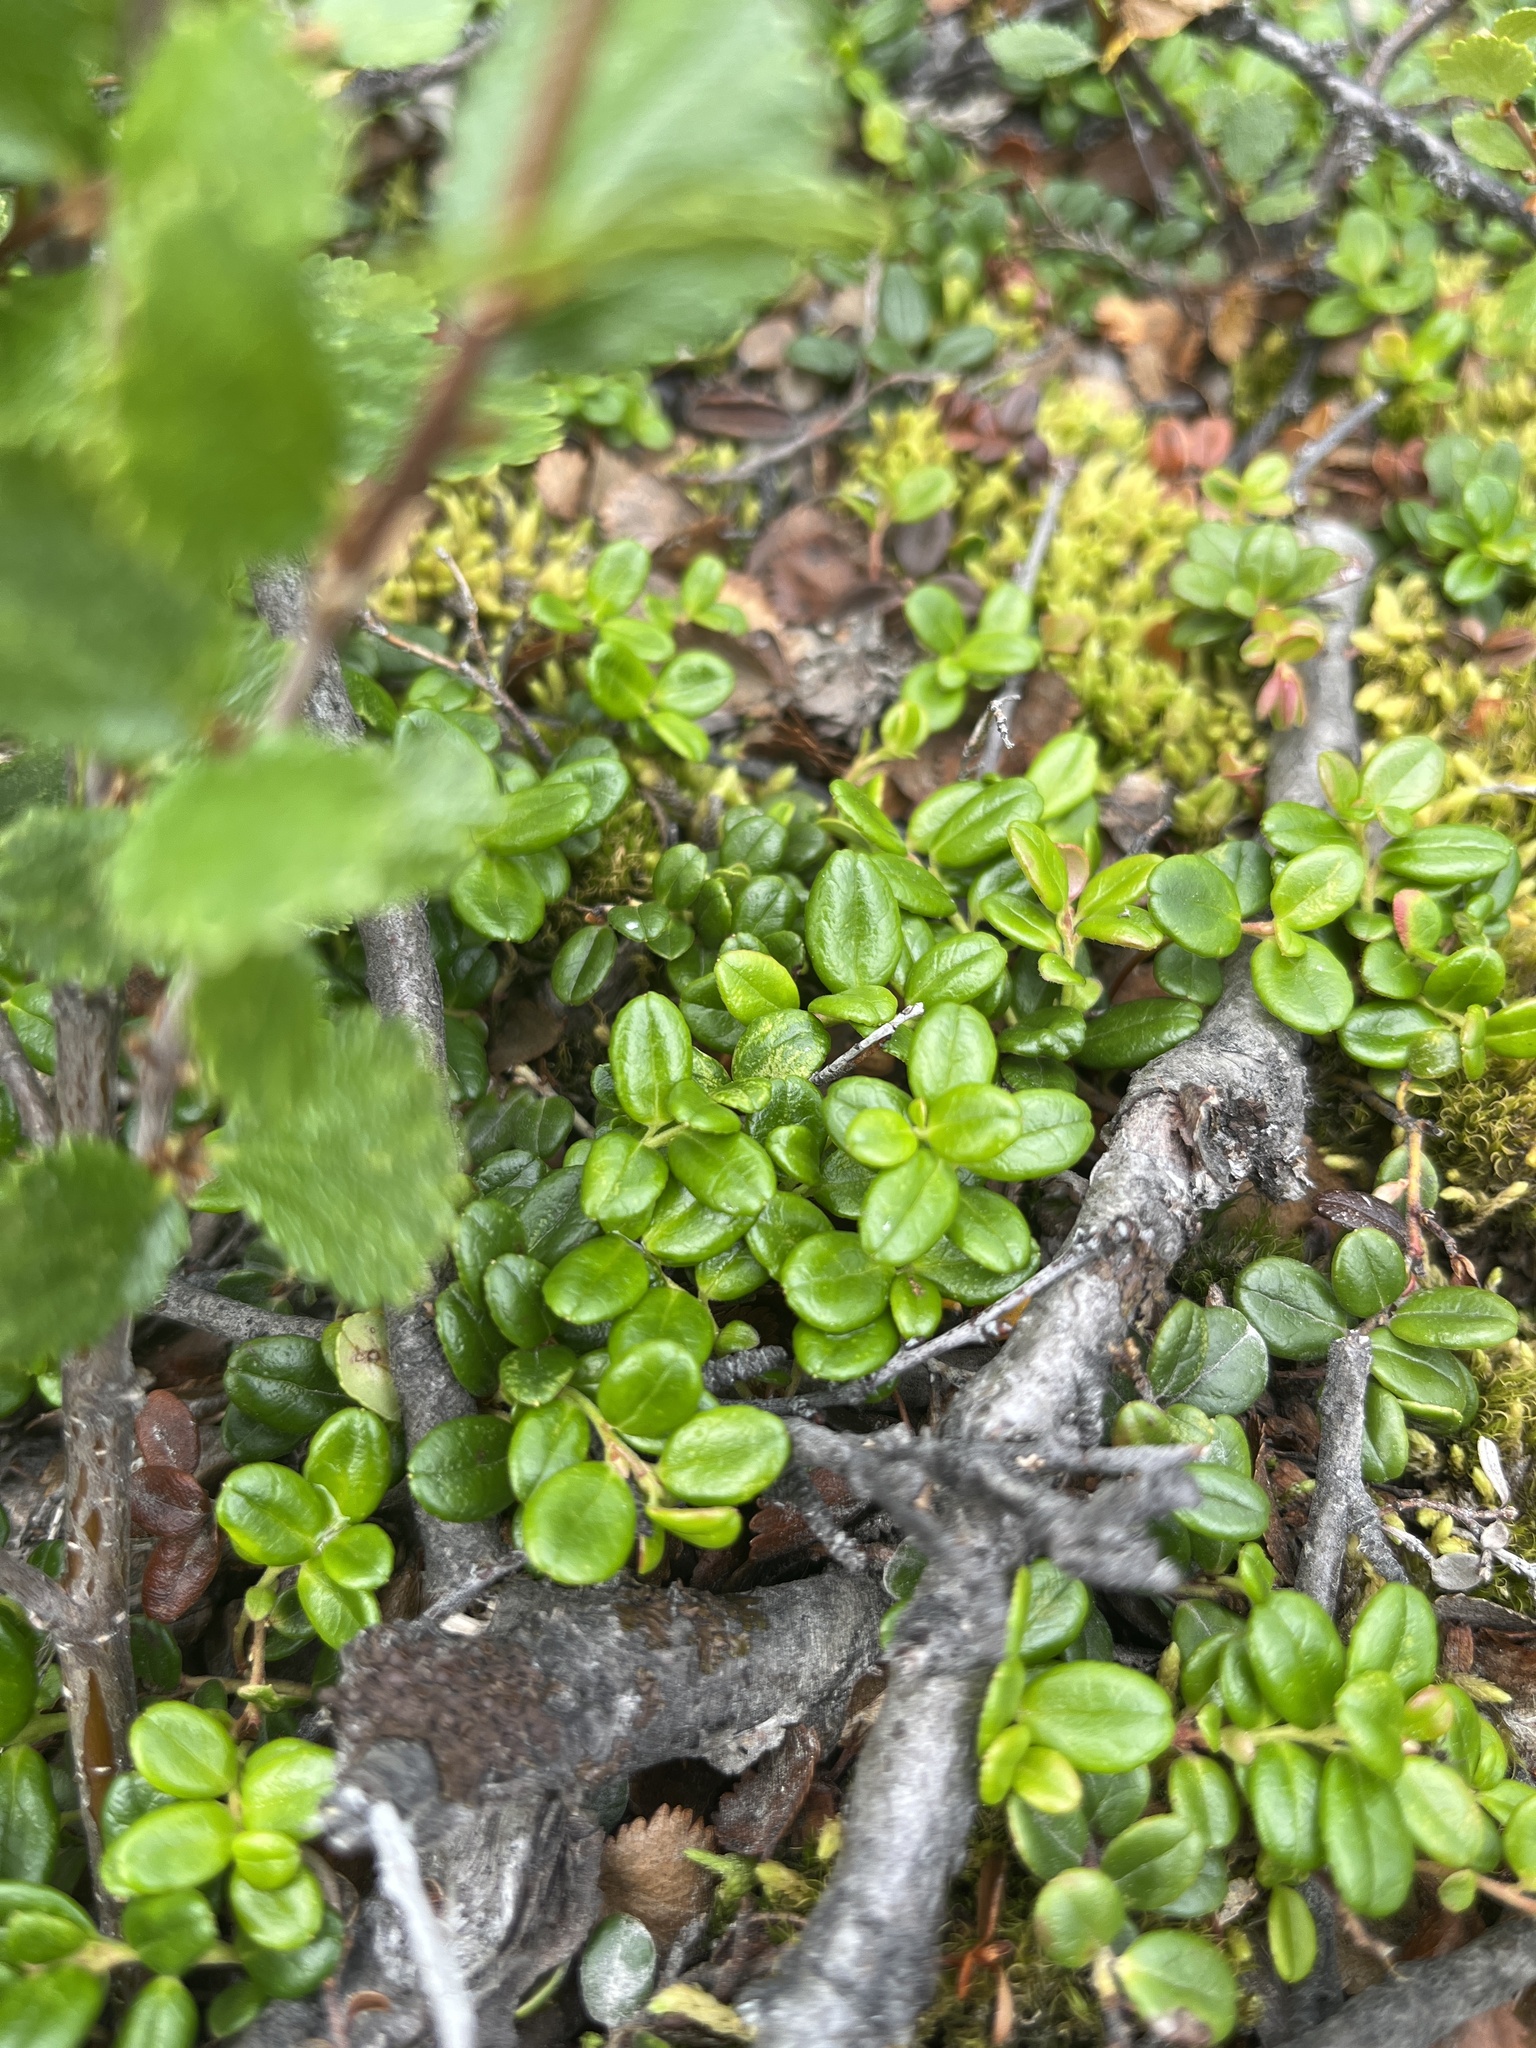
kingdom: Plantae
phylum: Tracheophyta
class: Magnoliopsida
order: Ericales
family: Ericaceae
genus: Vaccinium
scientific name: Vaccinium vitis-idaea
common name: Cowberry
